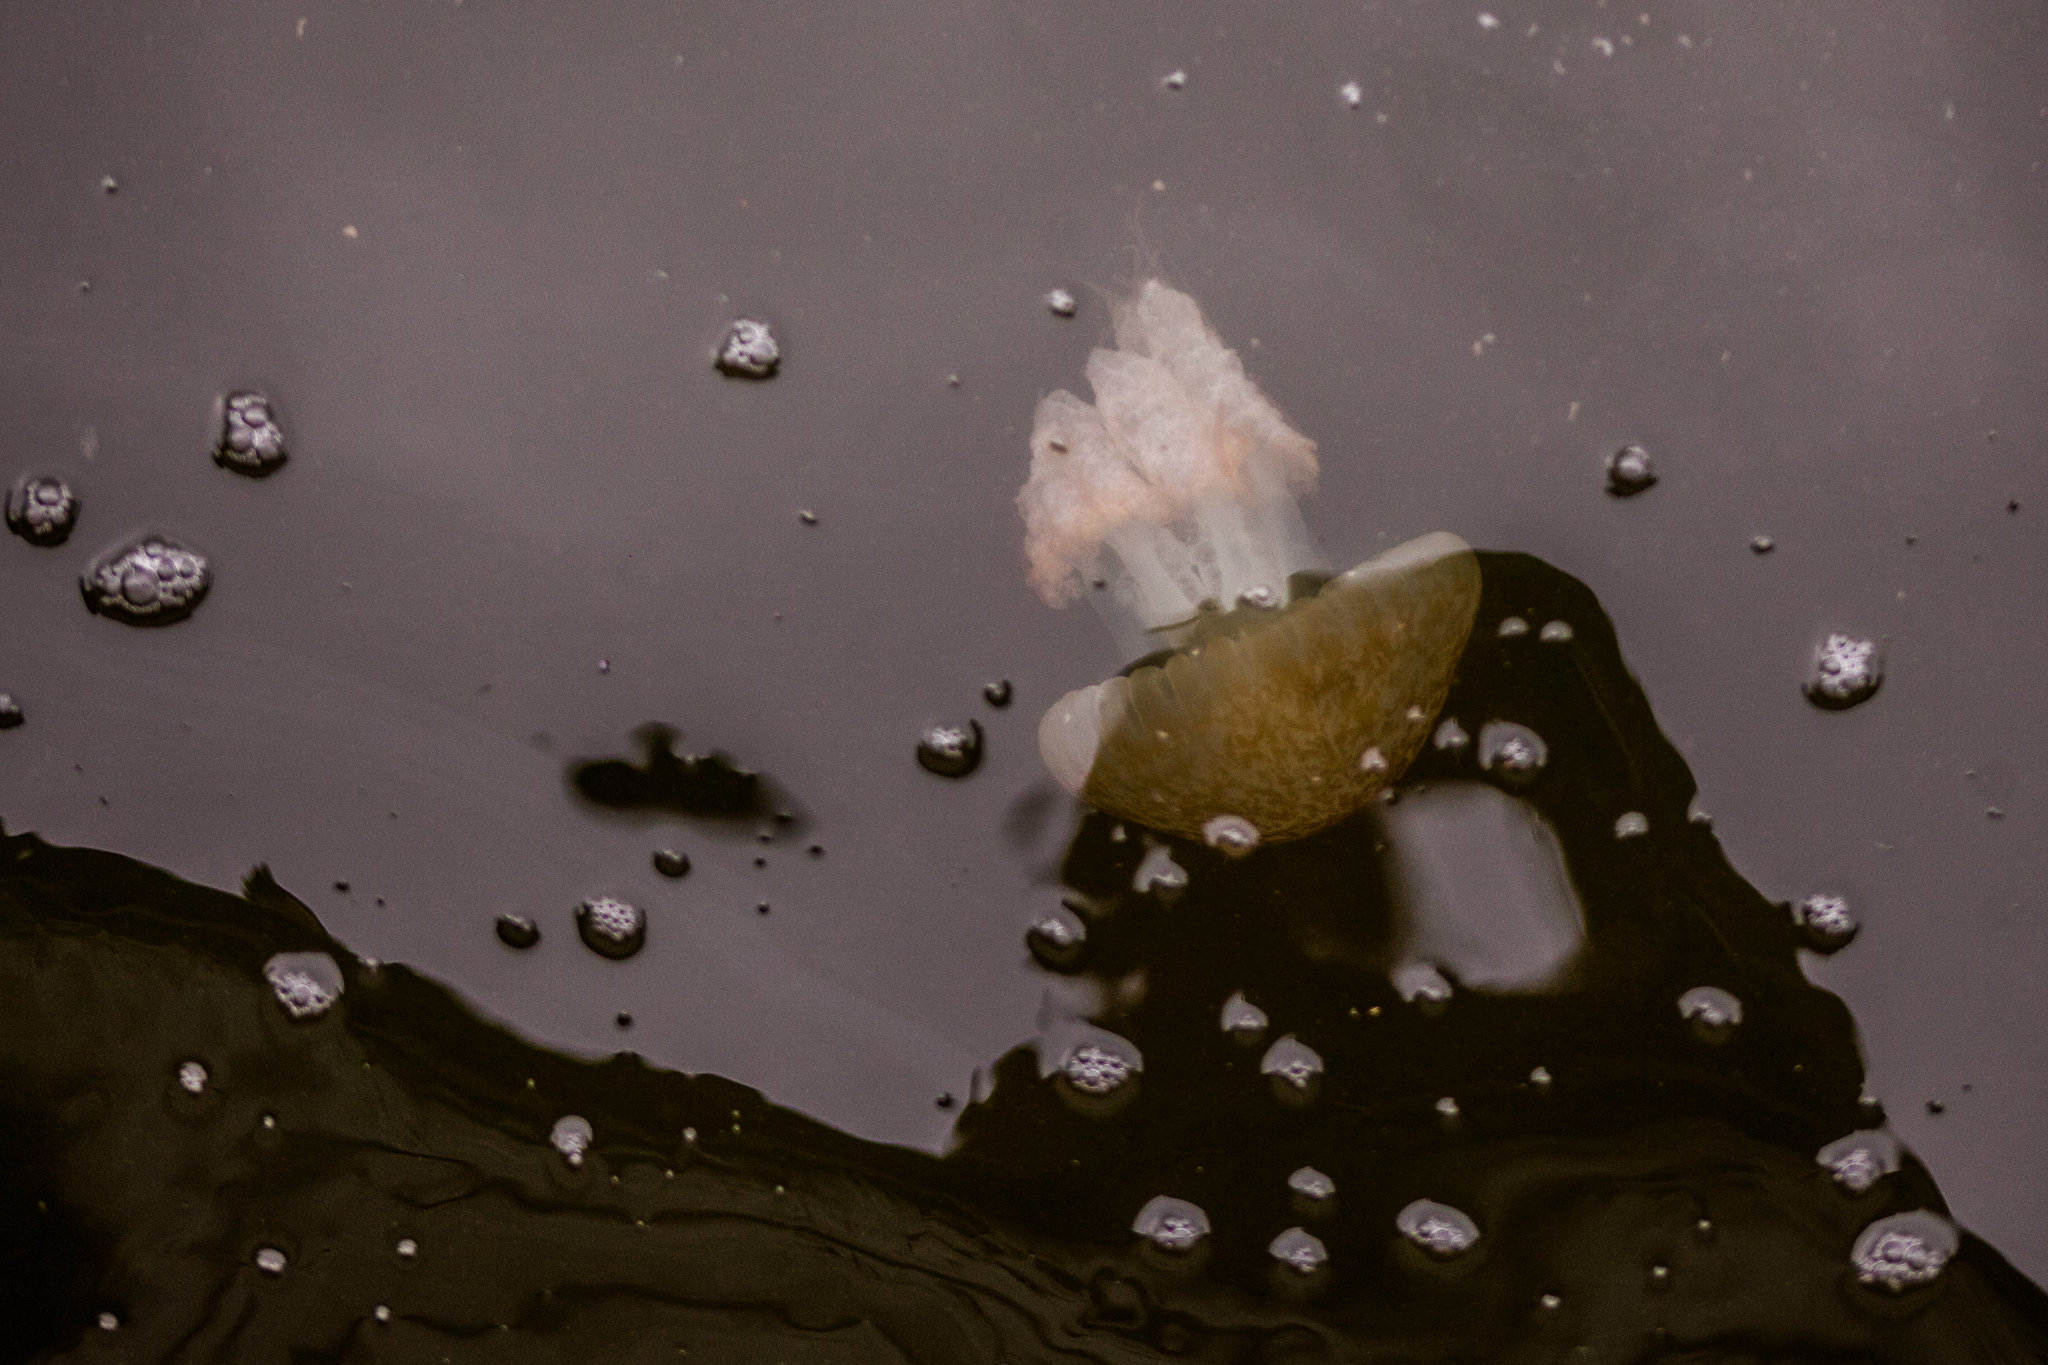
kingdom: Animalia
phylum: Cnidaria
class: Scyphozoa
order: Rhizostomeae
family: Lychnorhizidae
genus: Lychnorhiza
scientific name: Lychnorhiza lucerna
